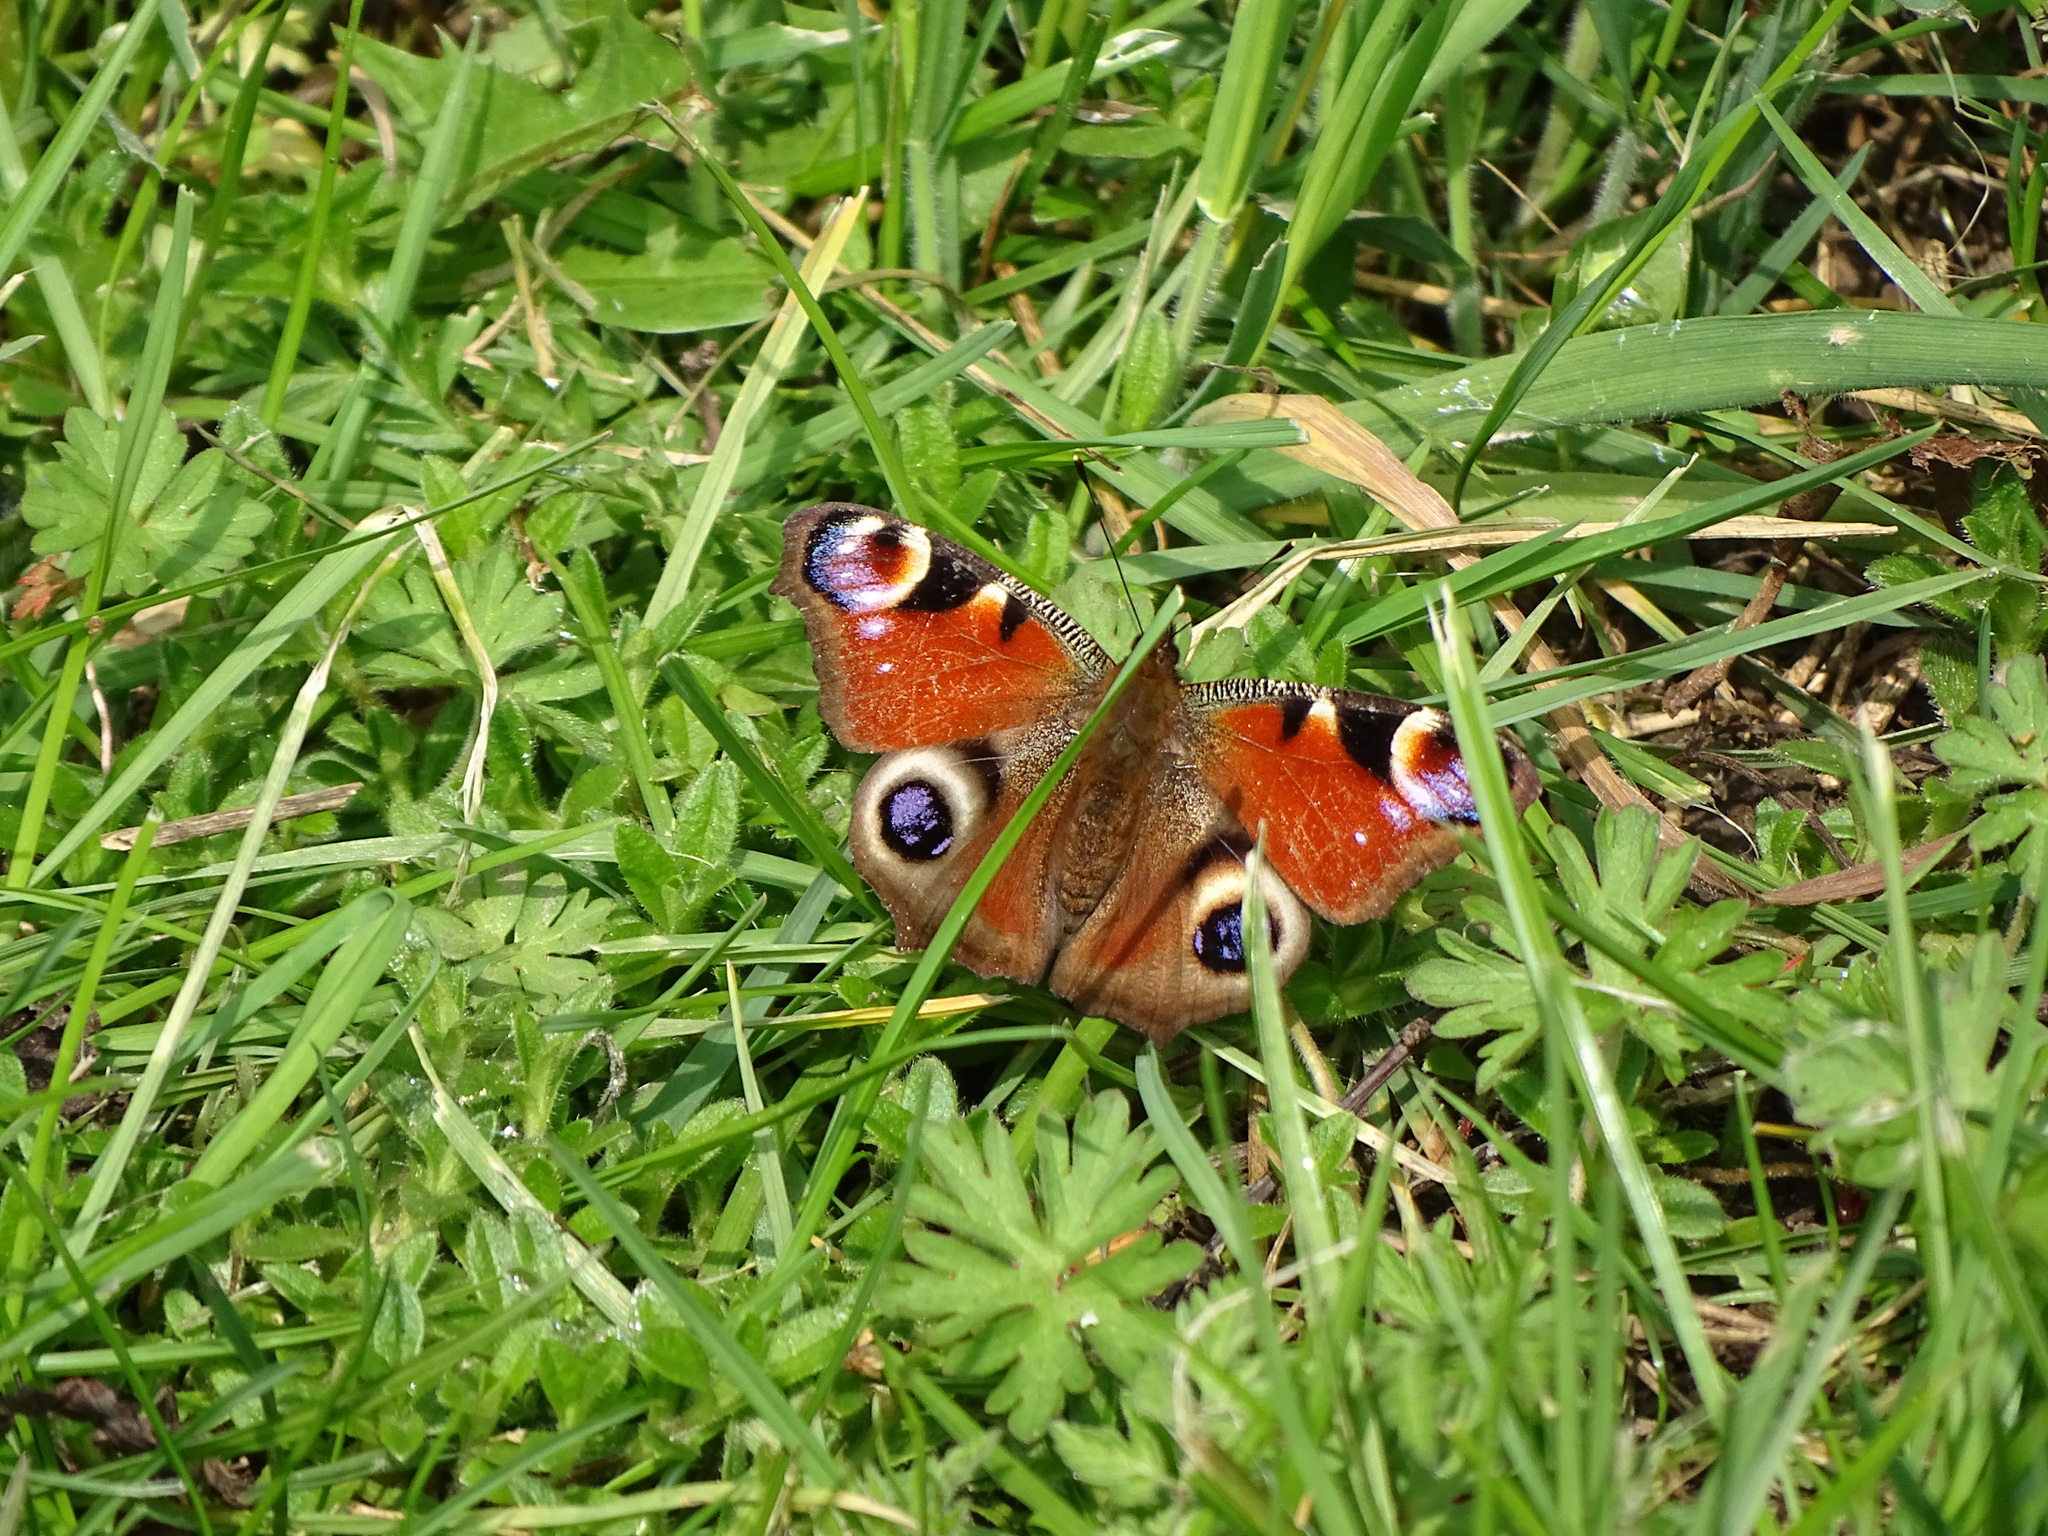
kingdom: Animalia
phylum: Arthropoda
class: Insecta
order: Lepidoptera
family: Nymphalidae
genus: Aglais
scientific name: Aglais io
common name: Peacock
